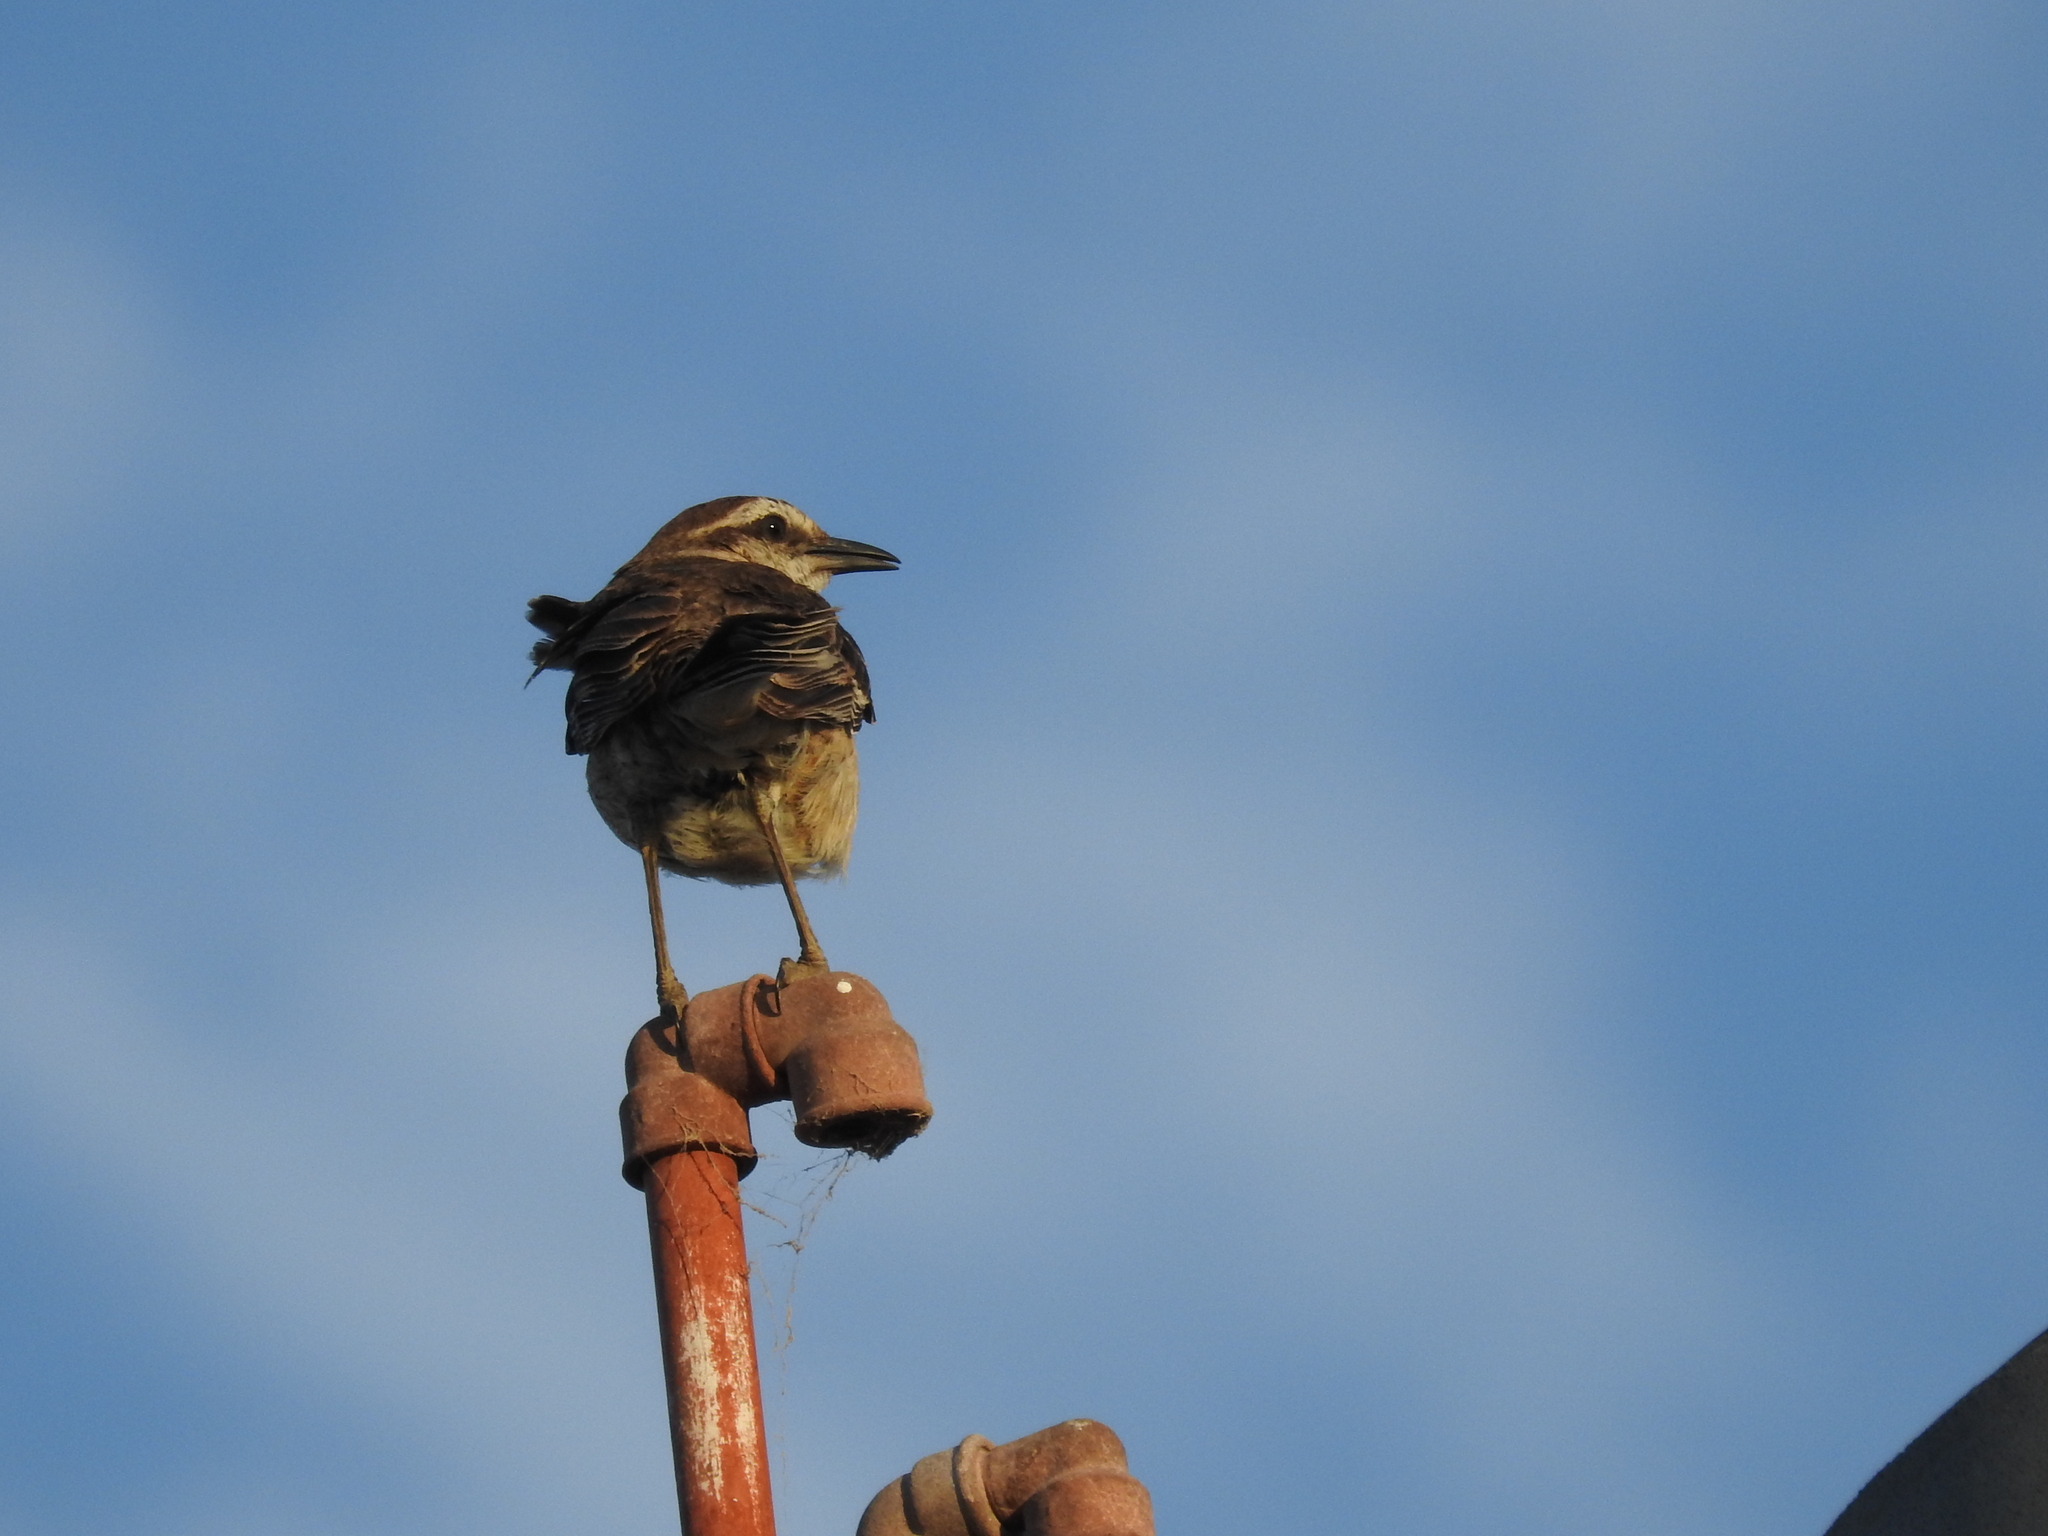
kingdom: Animalia
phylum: Chordata
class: Aves
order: Passeriformes
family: Mimidae
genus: Mimus
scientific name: Mimus saturninus
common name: Chalk-browed mockingbird
